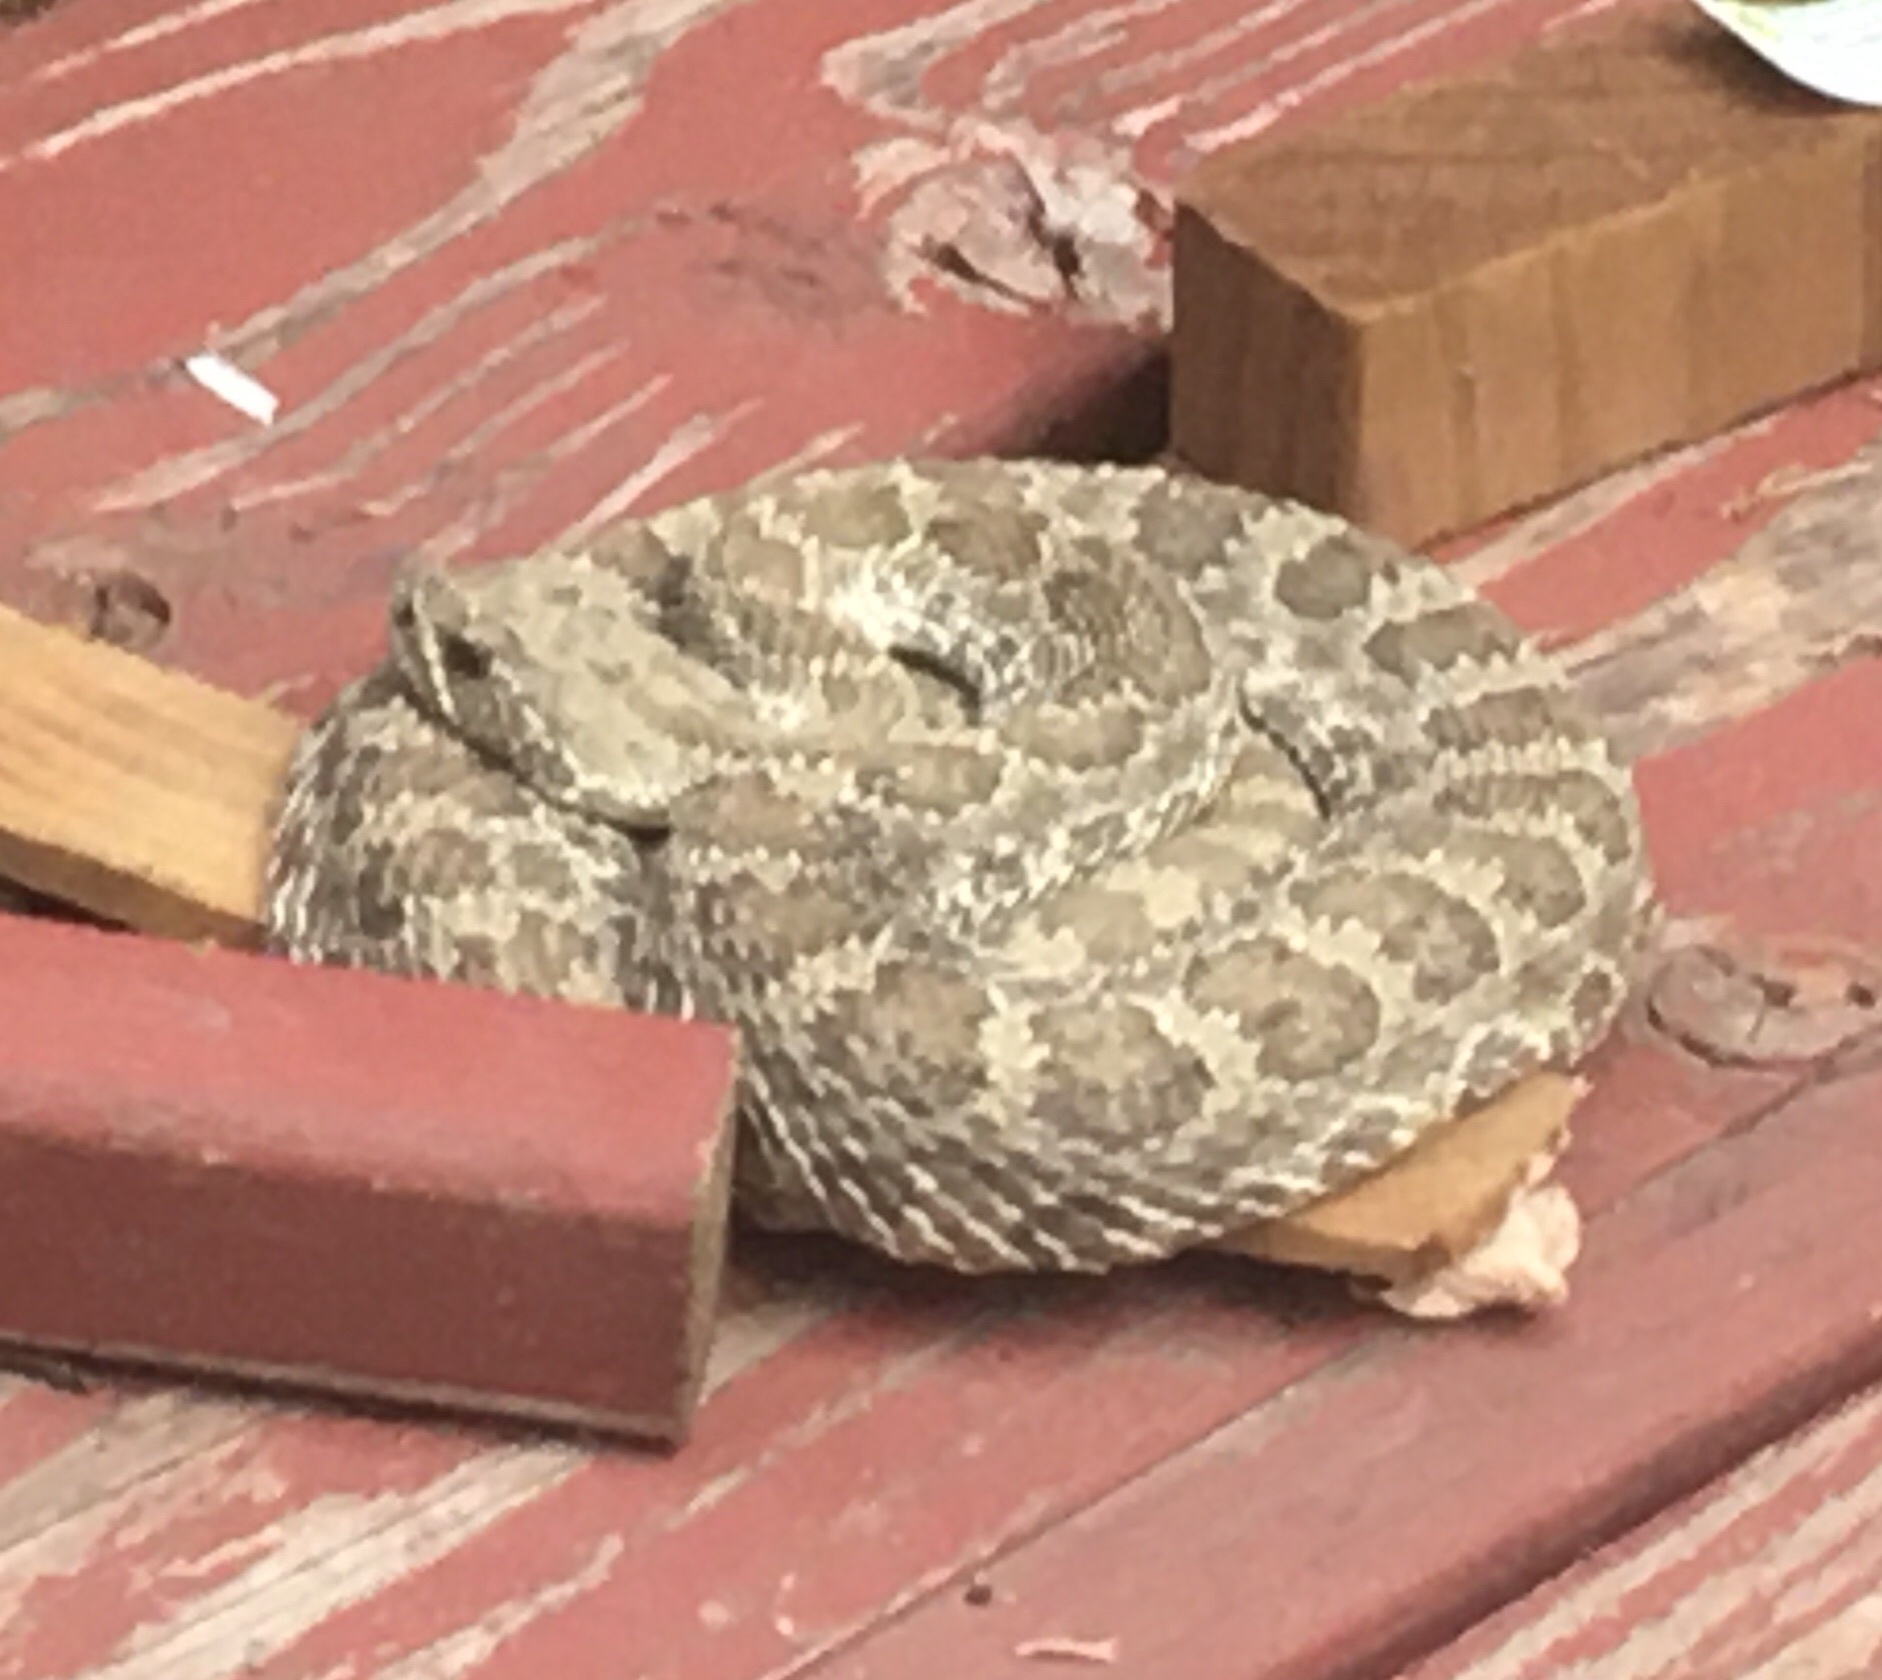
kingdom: Animalia
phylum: Chordata
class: Squamata
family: Viperidae
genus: Crotalus
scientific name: Crotalus viridis
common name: Prairie rattlesnake
